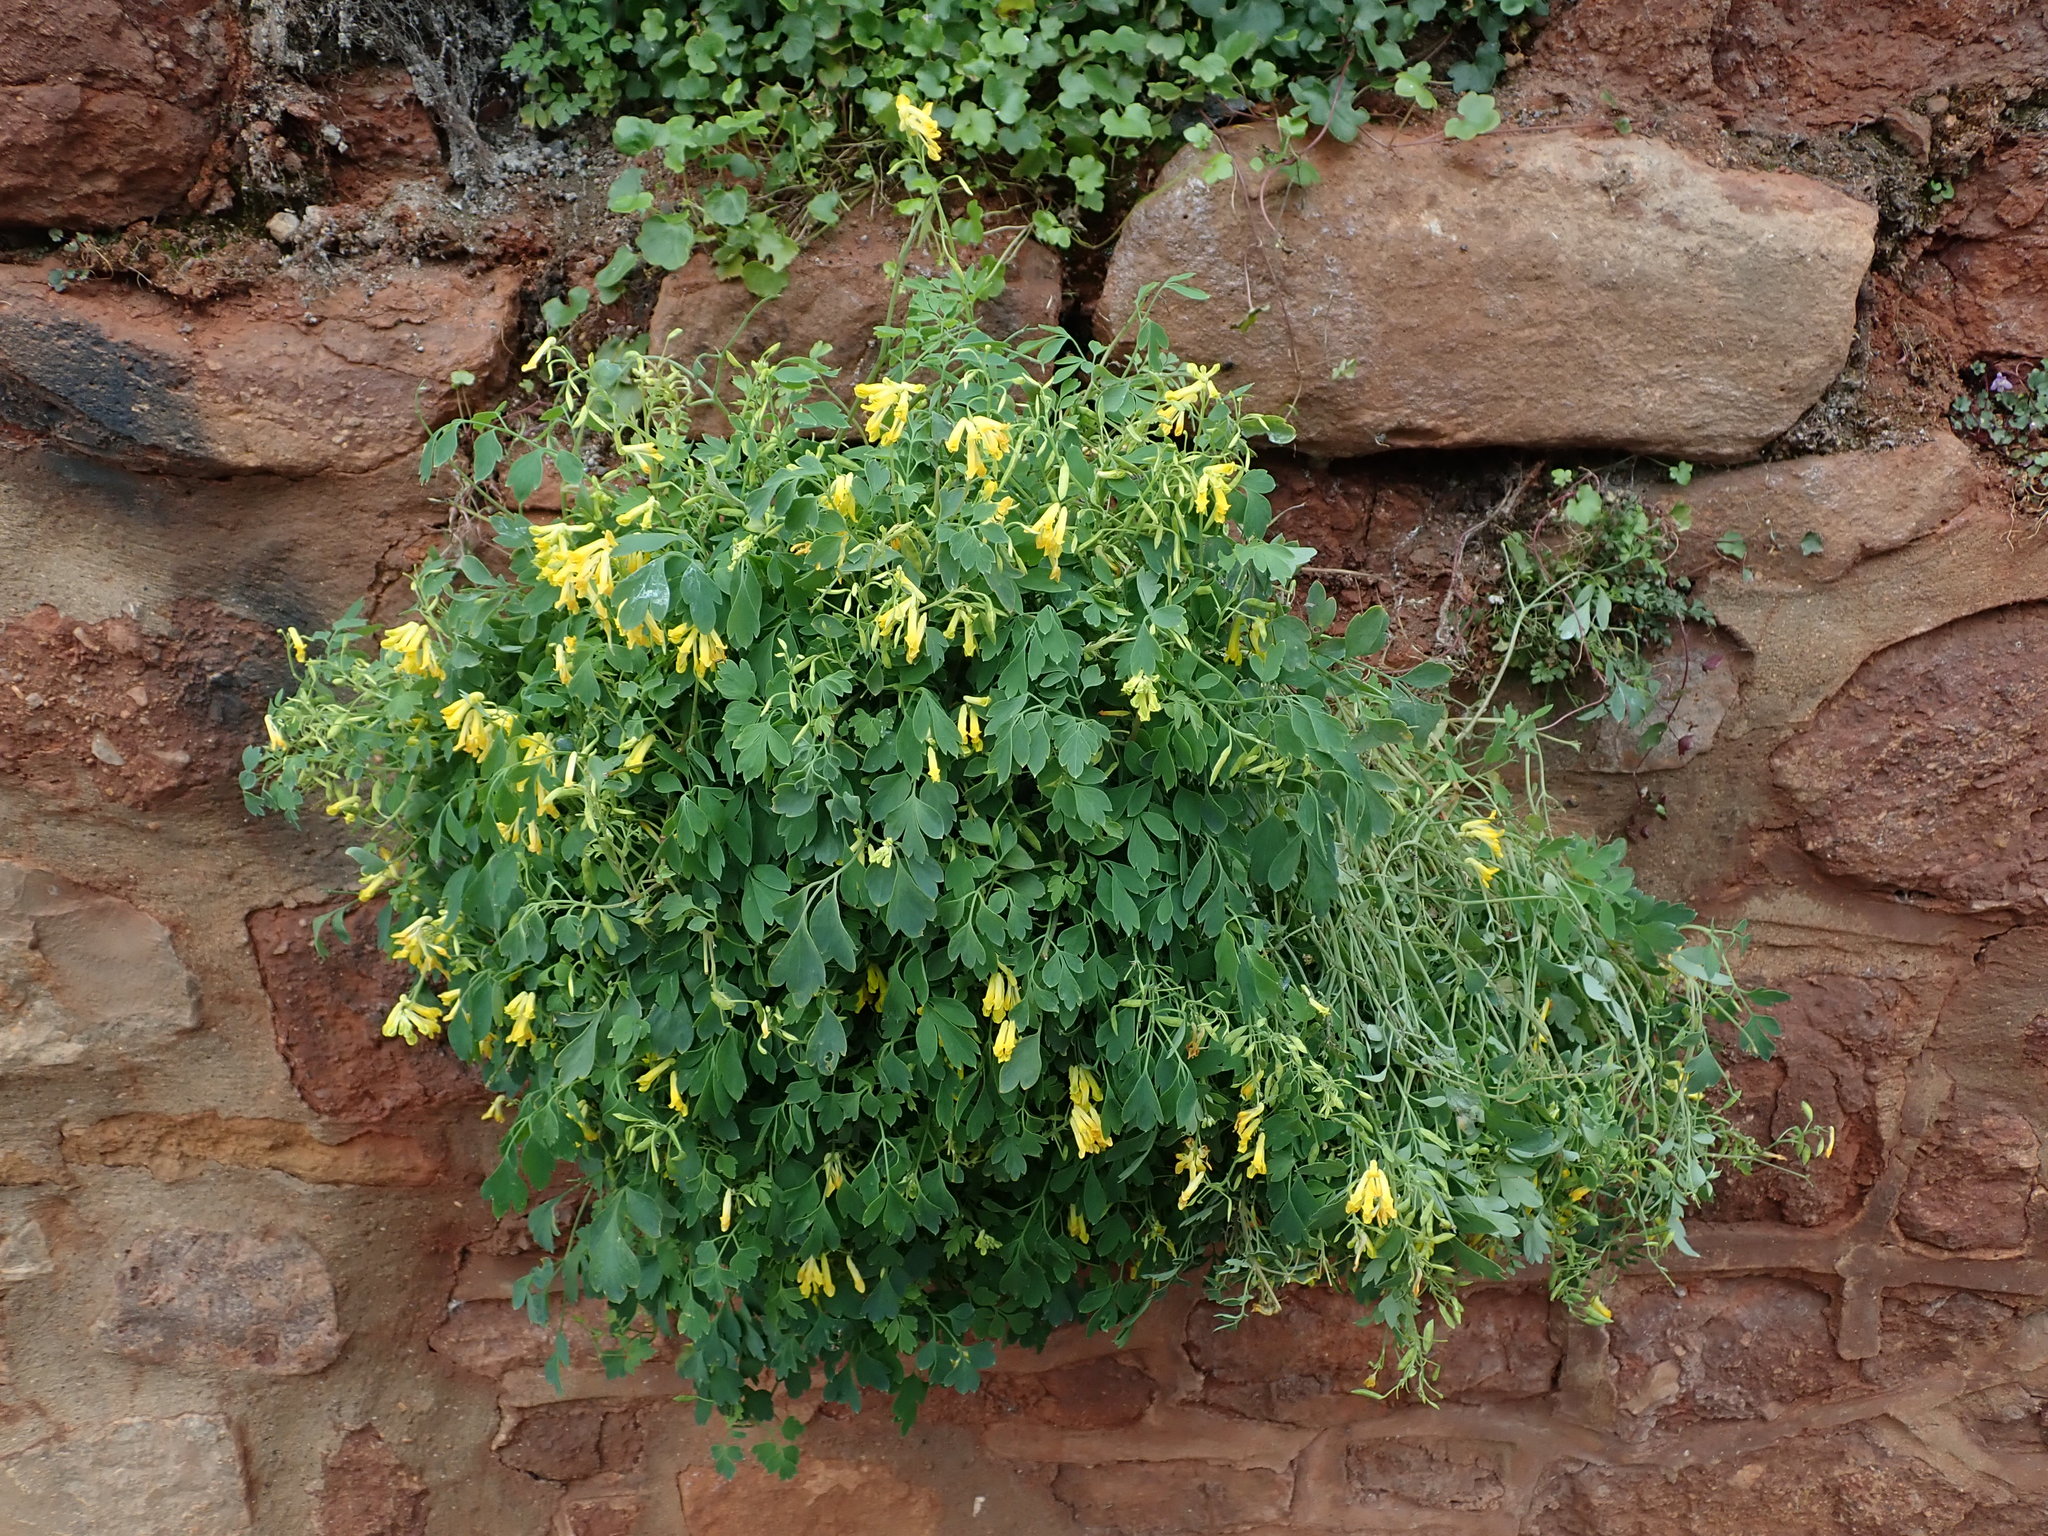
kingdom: Plantae
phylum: Tracheophyta
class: Magnoliopsida
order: Ranunculales
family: Papaveraceae
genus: Pseudofumaria
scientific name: Pseudofumaria lutea
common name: Yellow corydalis
